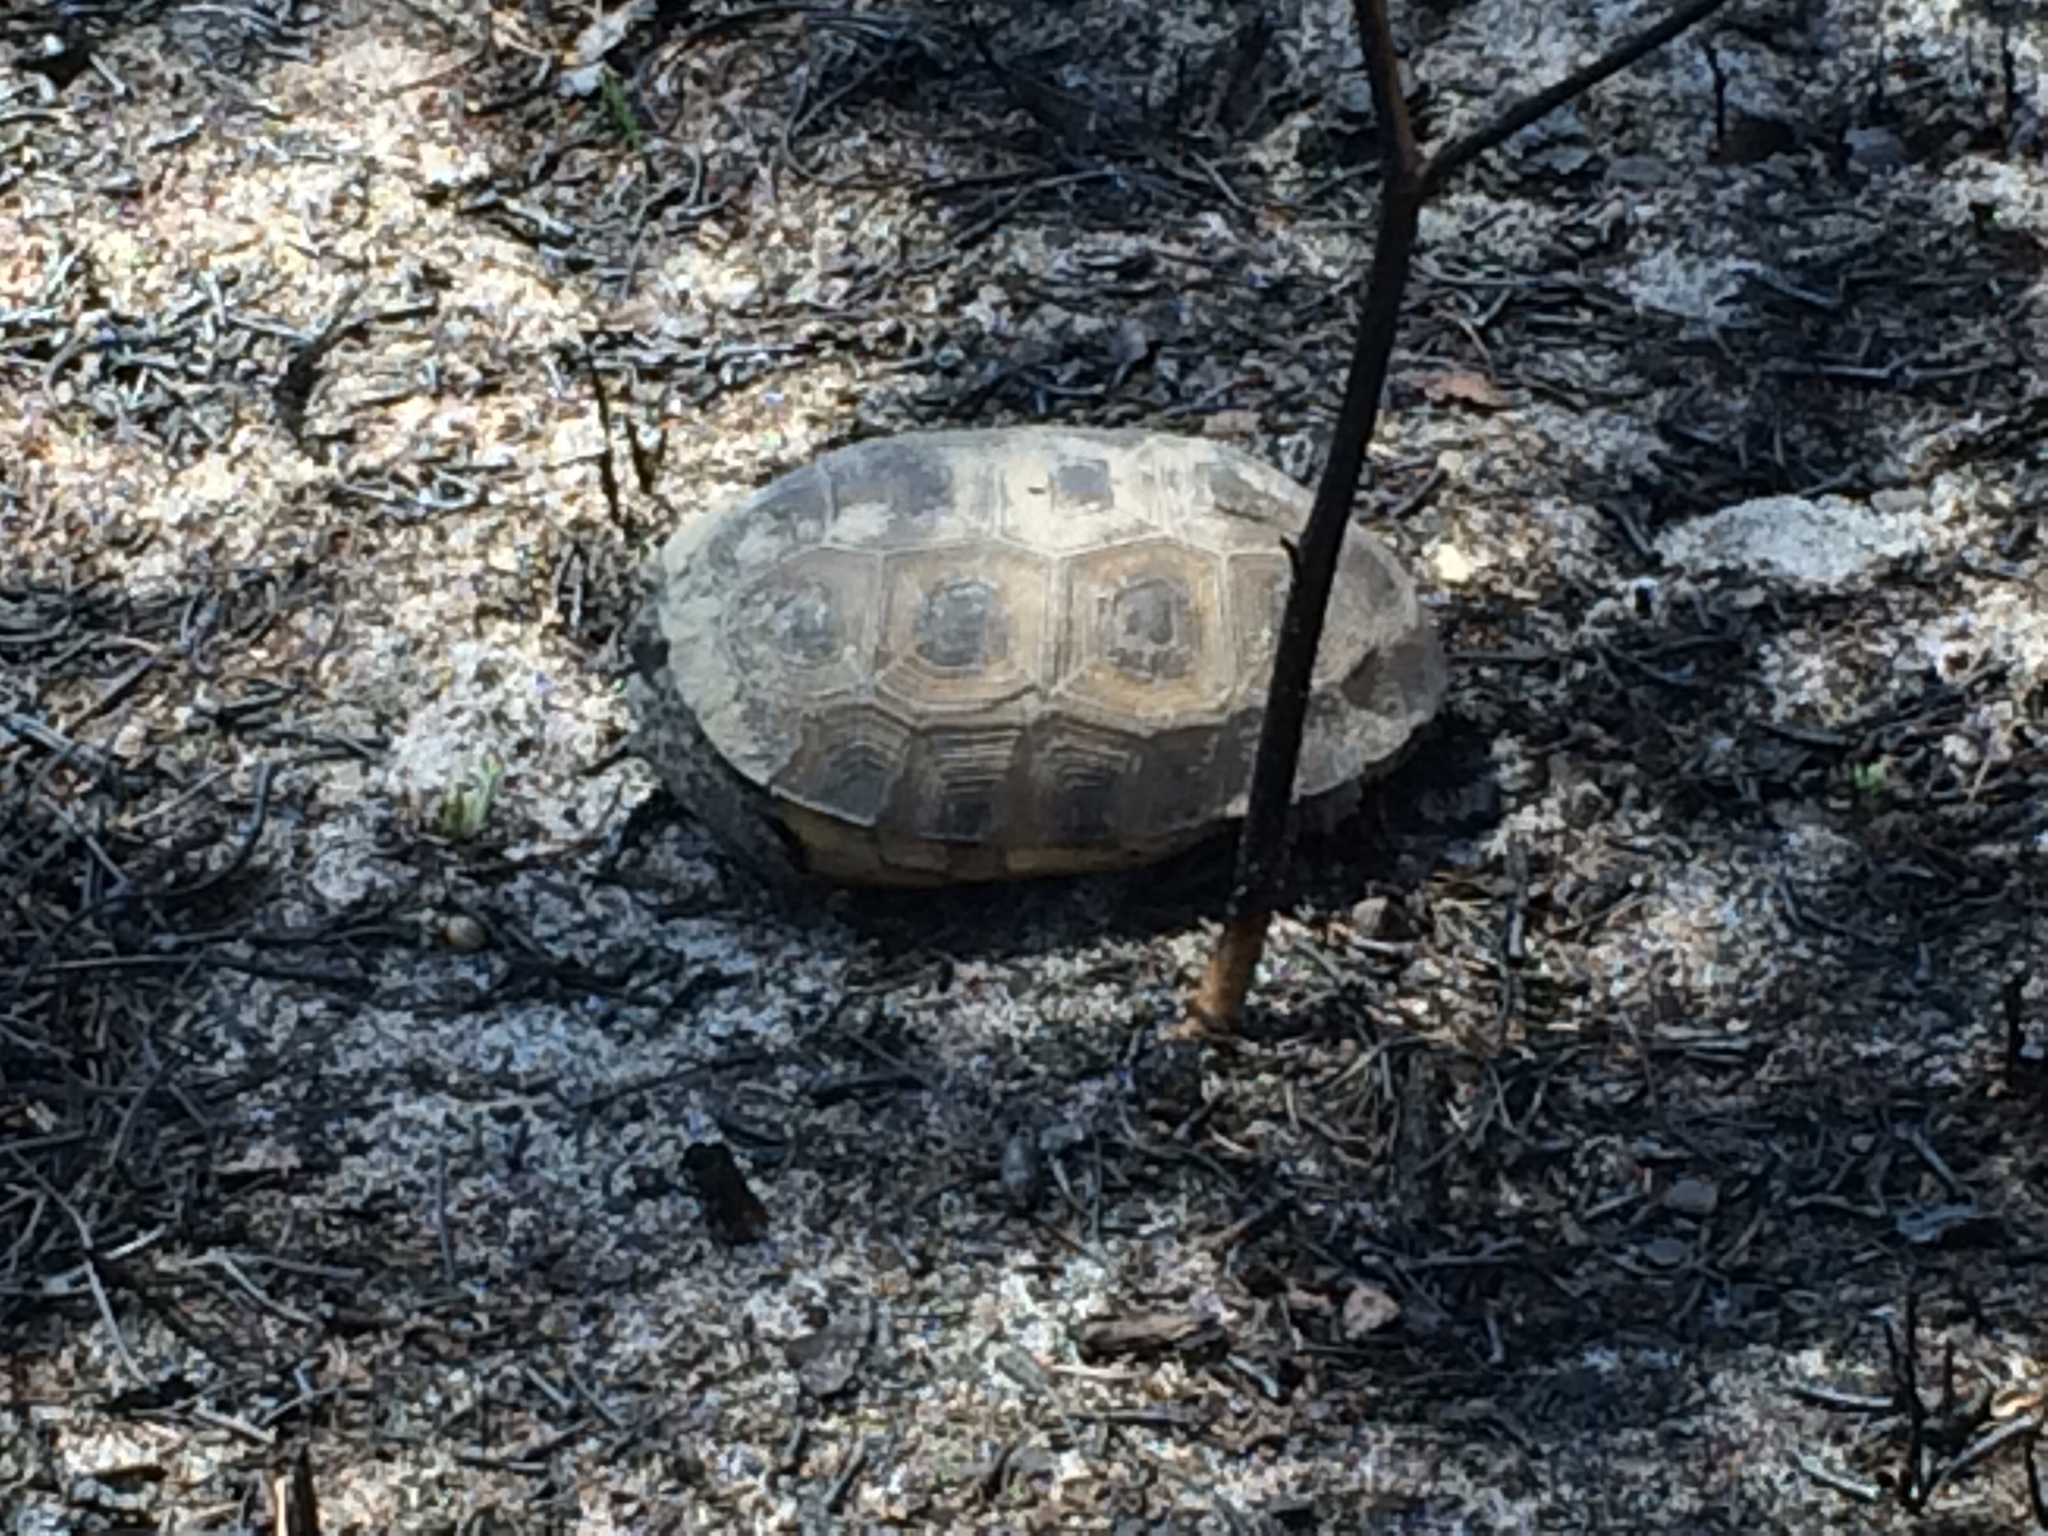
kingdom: Animalia
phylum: Chordata
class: Testudines
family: Testudinidae
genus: Gopherus
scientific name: Gopherus polyphemus
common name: Florida gopher tortoise
